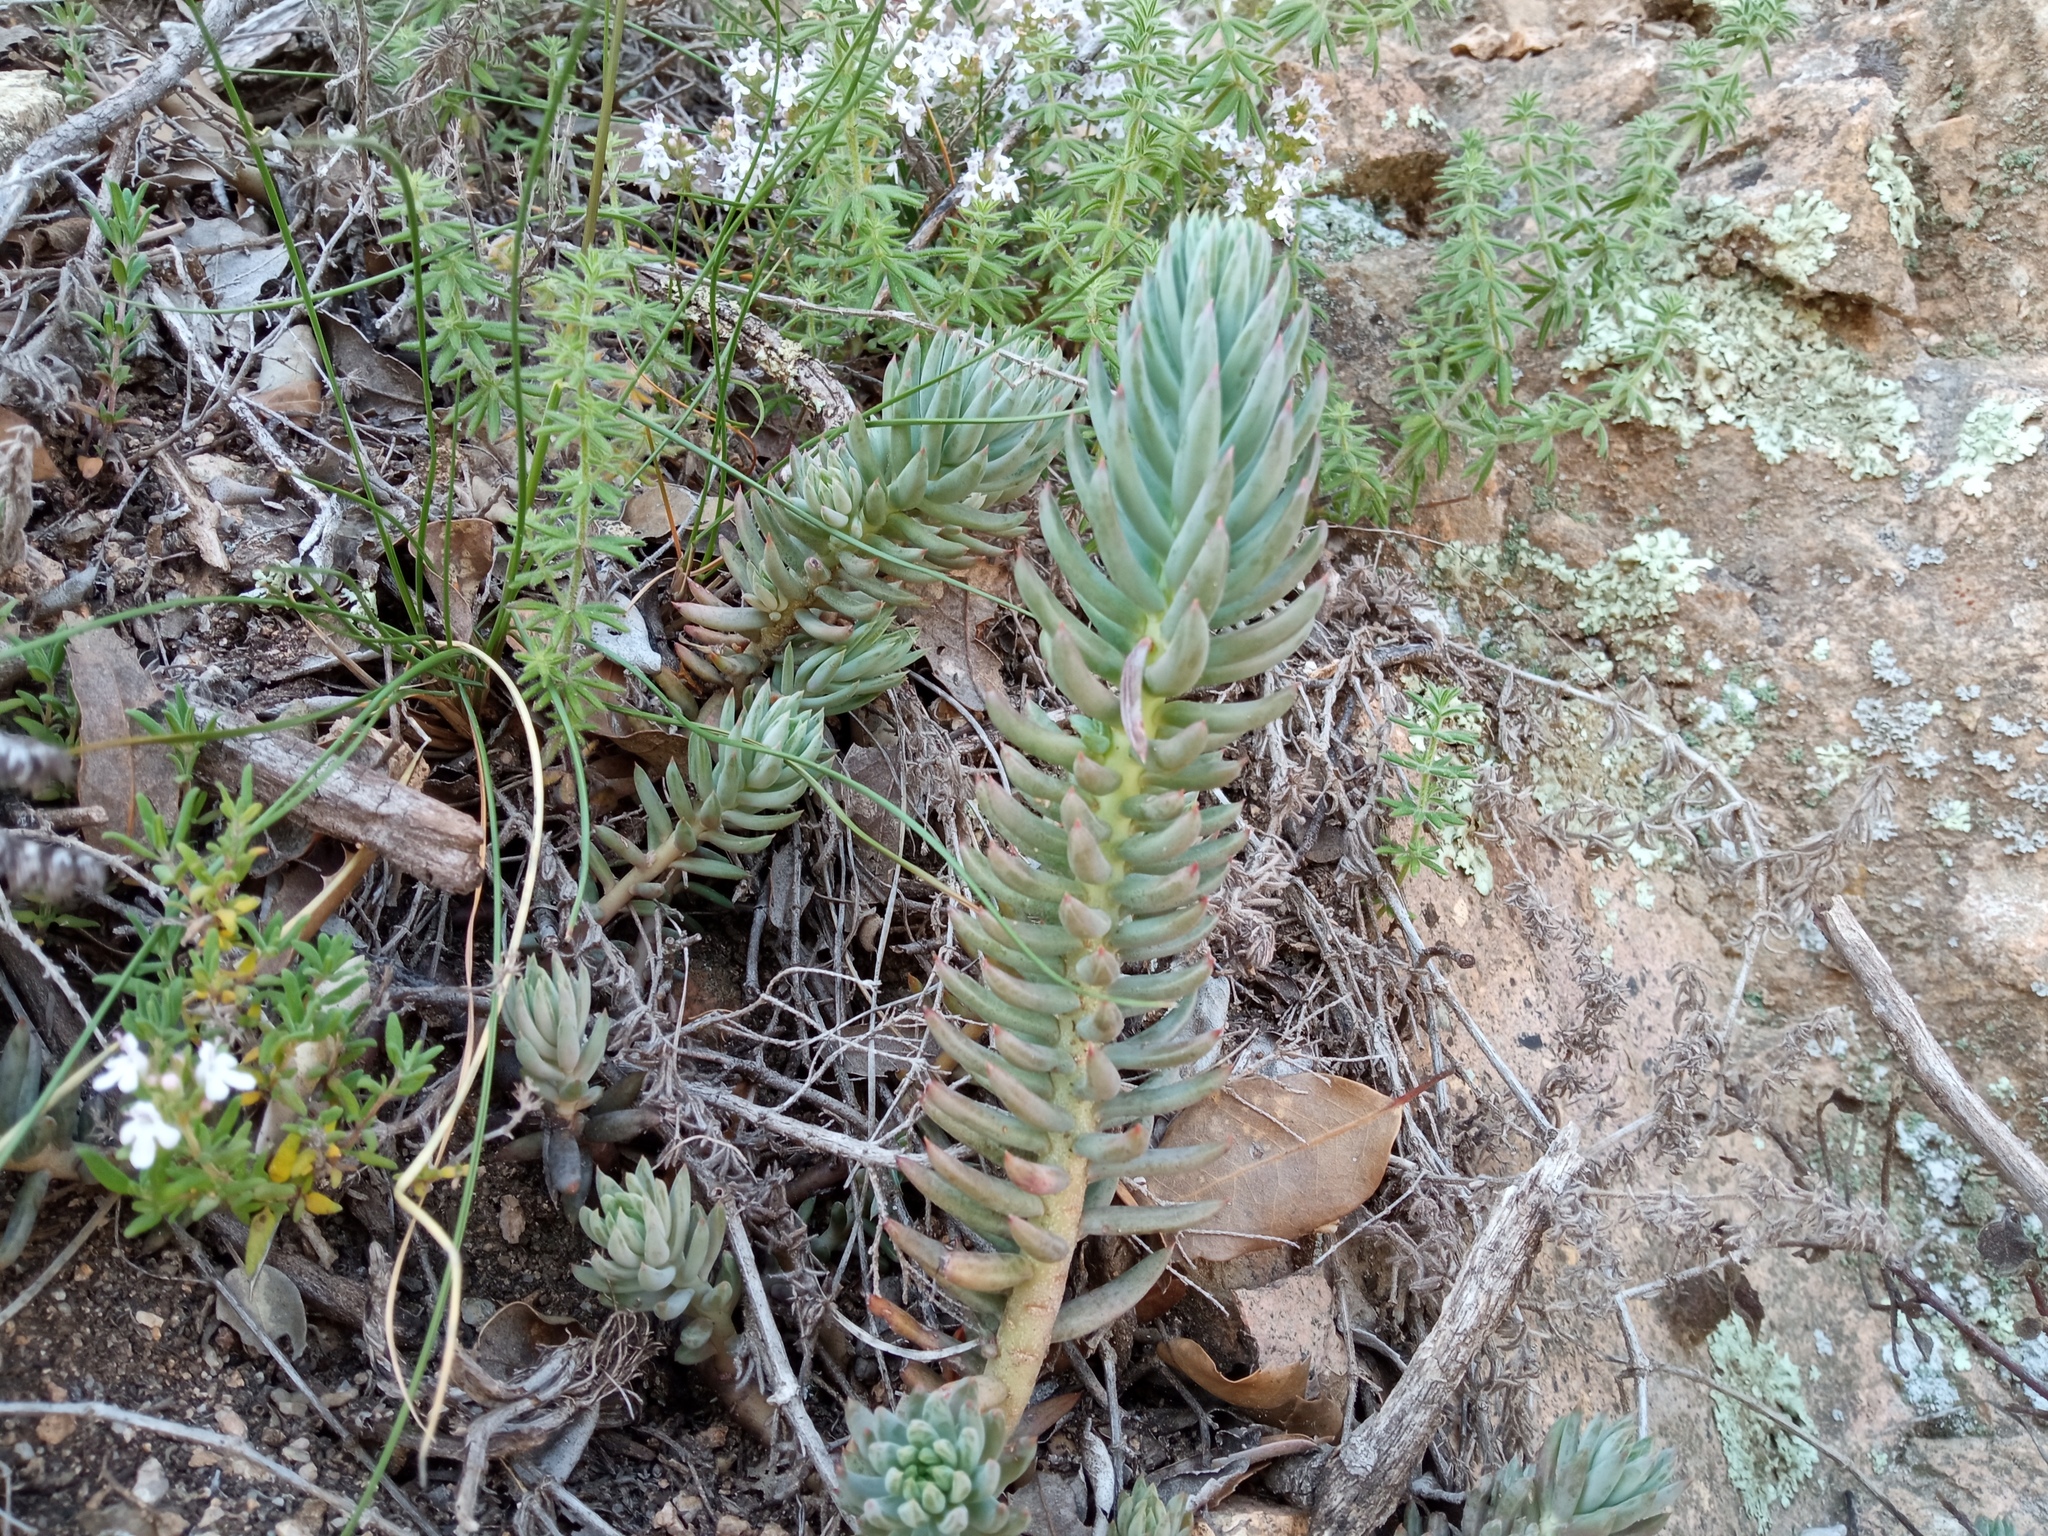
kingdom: Plantae
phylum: Tracheophyta
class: Magnoliopsida
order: Saxifragales
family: Crassulaceae
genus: Petrosedum
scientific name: Petrosedum sediforme
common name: Pale stonecrop
